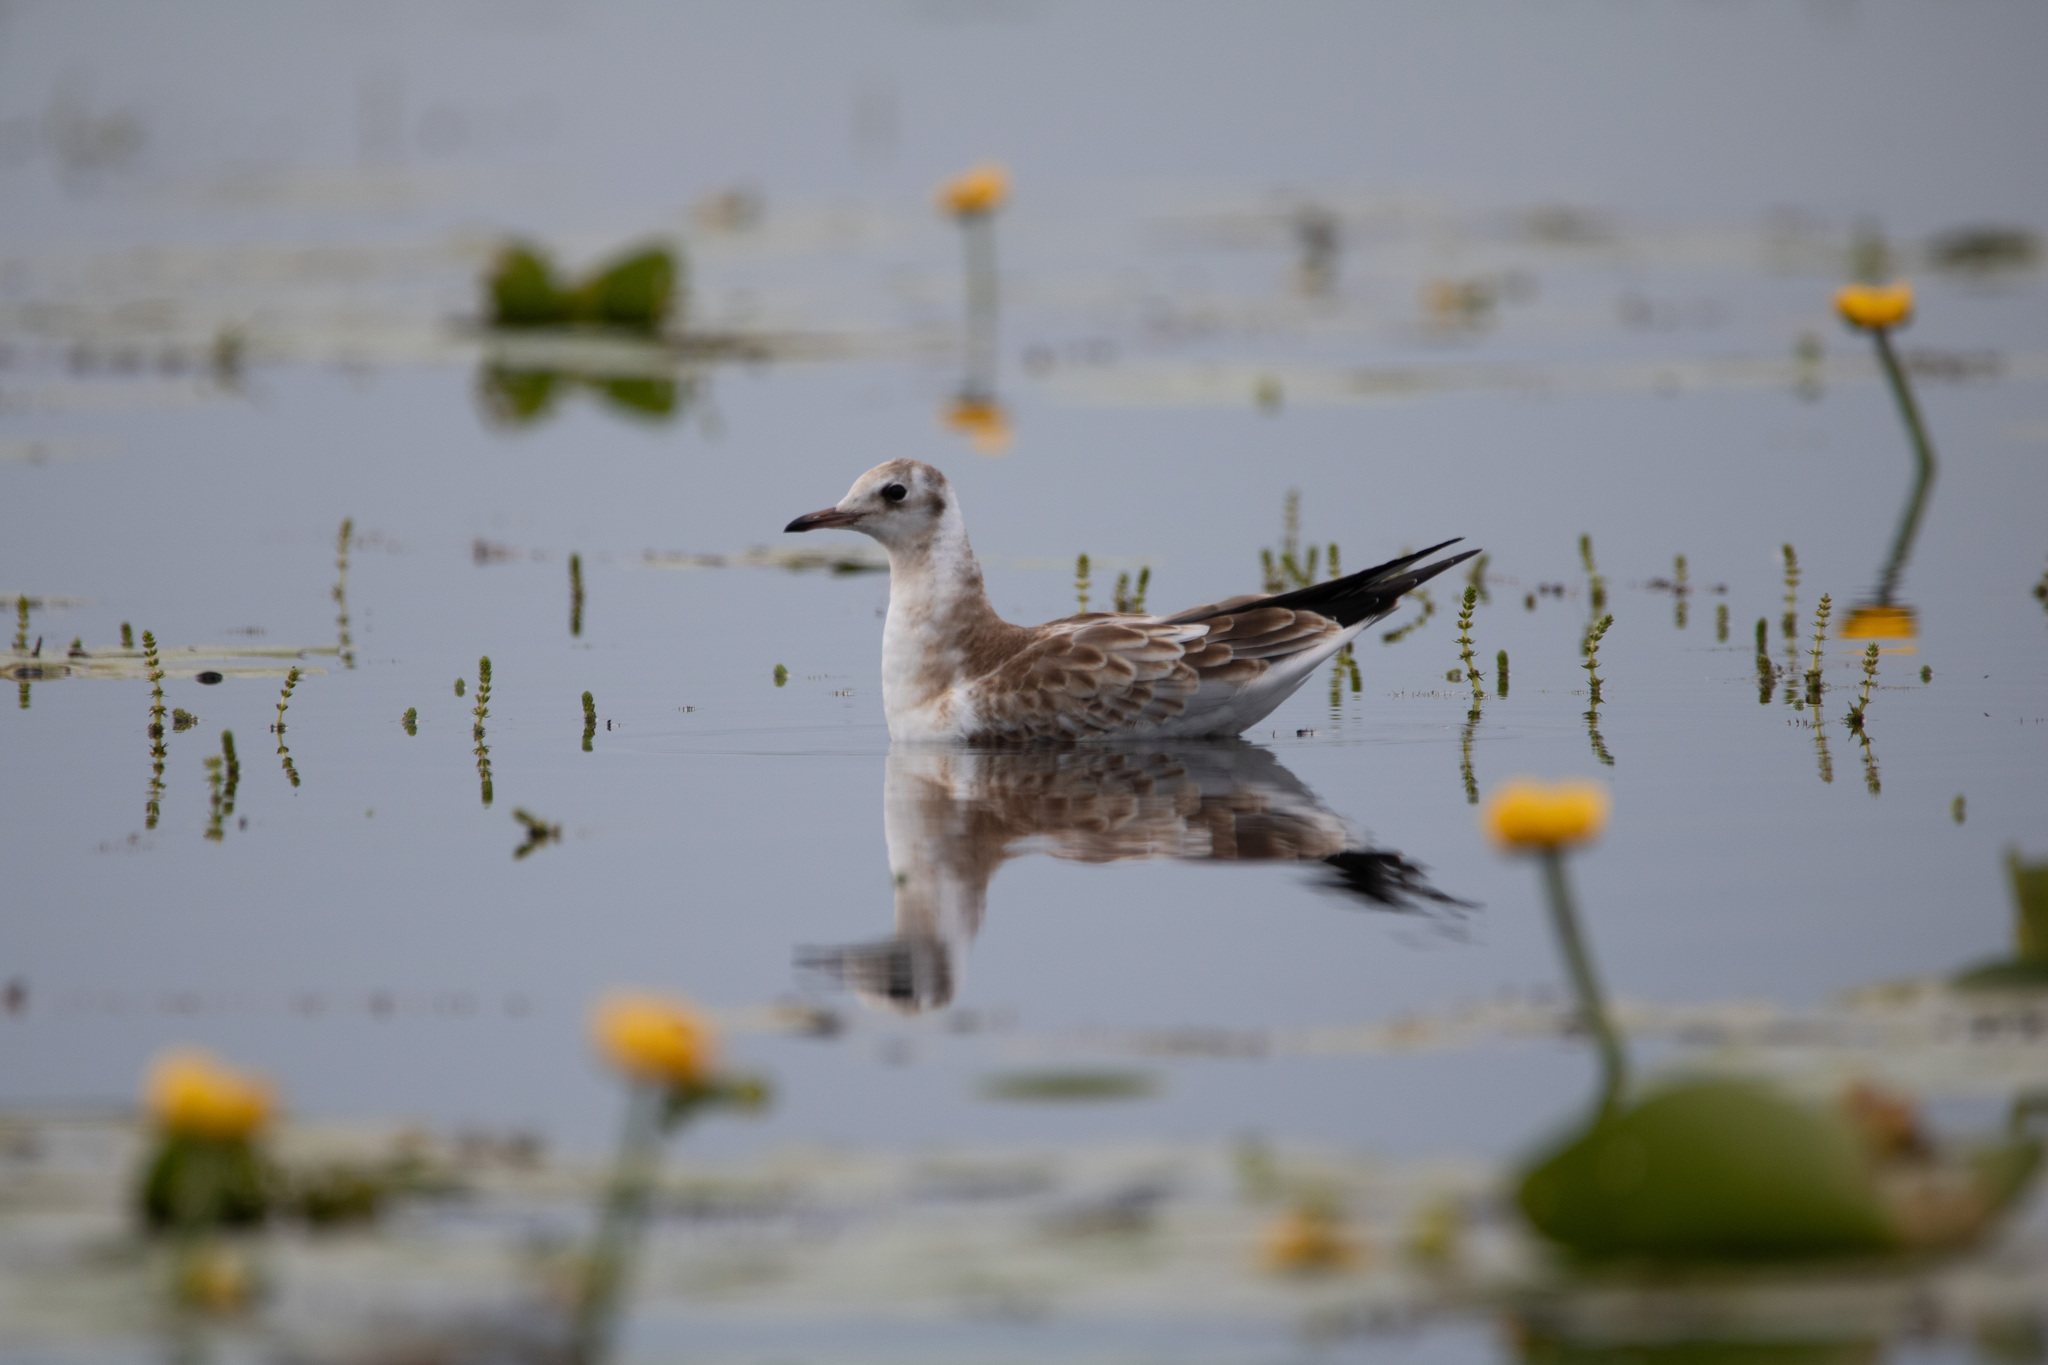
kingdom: Animalia
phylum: Chordata
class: Aves
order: Charadriiformes
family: Laridae
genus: Chroicocephalus
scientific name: Chroicocephalus ridibundus
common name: Black-headed gull
